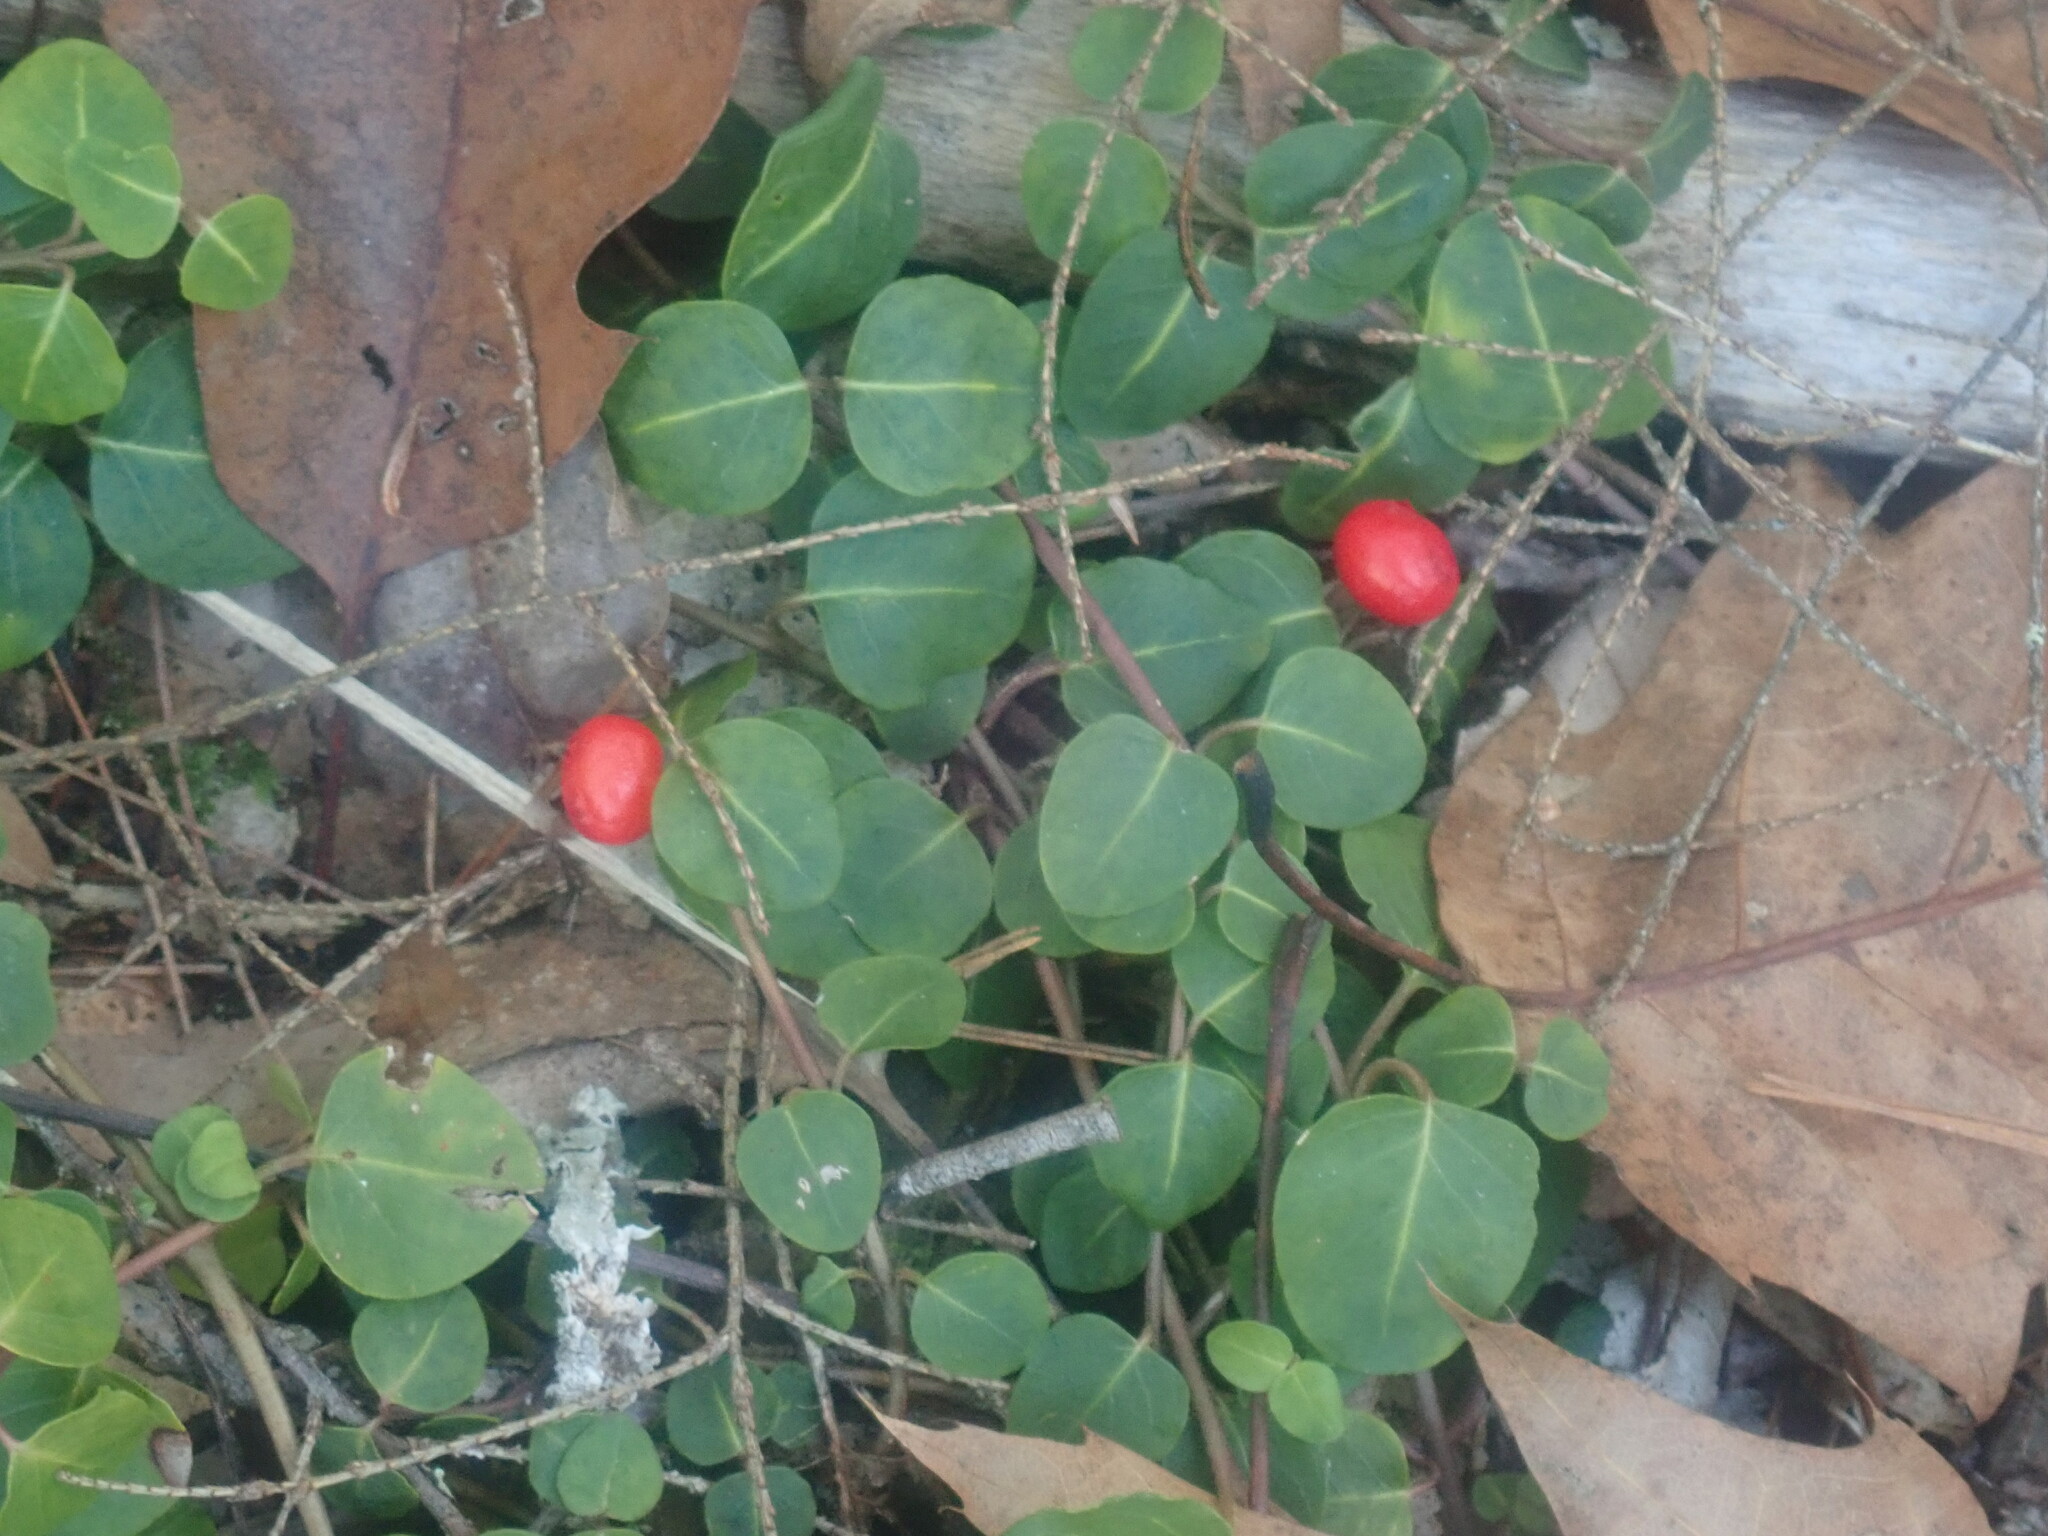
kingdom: Plantae
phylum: Tracheophyta
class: Magnoliopsida
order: Gentianales
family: Rubiaceae
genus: Mitchella
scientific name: Mitchella repens
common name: Partridge-berry
